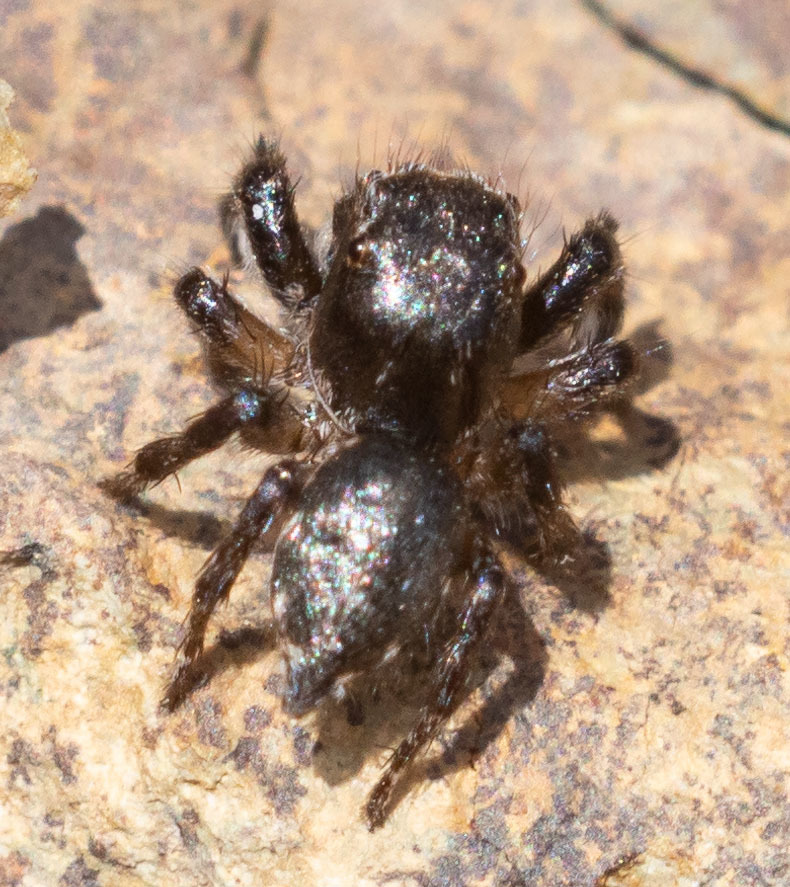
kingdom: Animalia
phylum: Arthropoda
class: Arachnida
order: Araneae
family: Salticidae
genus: Habronattus
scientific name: Habronattus hirsutus
